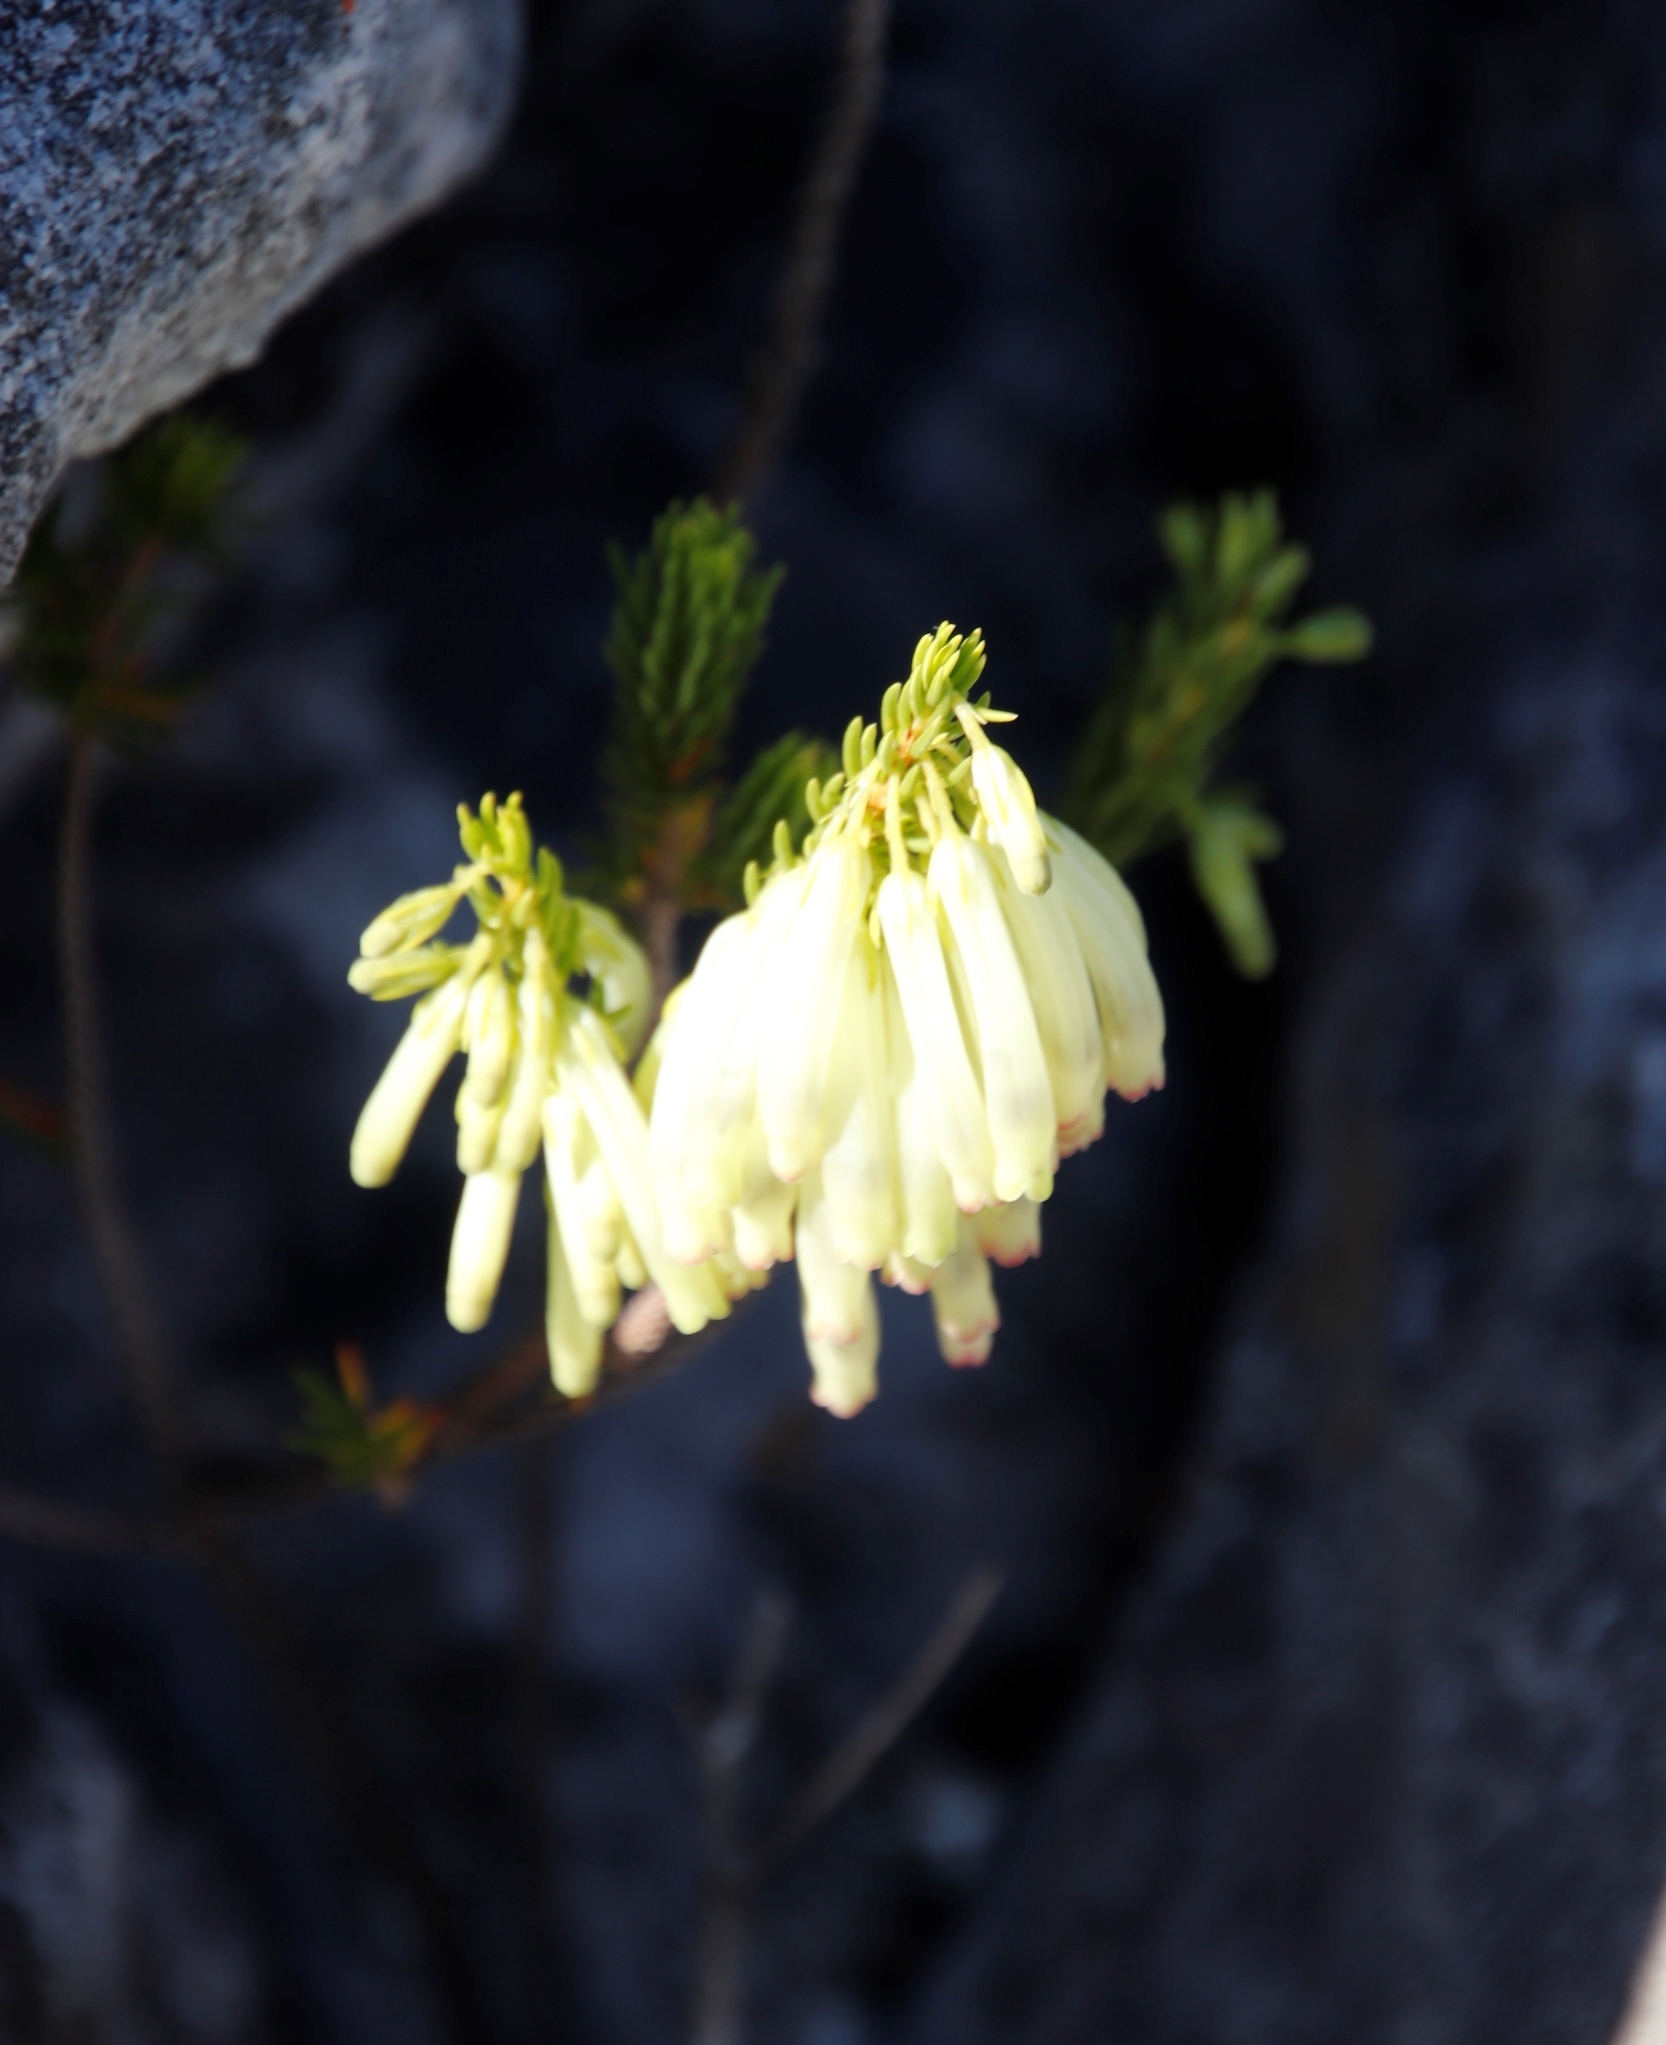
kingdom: Plantae
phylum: Tracheophyta
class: Magnoliopsida
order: Ericales
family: Ericaceae
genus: Erica
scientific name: Erica mammosa
